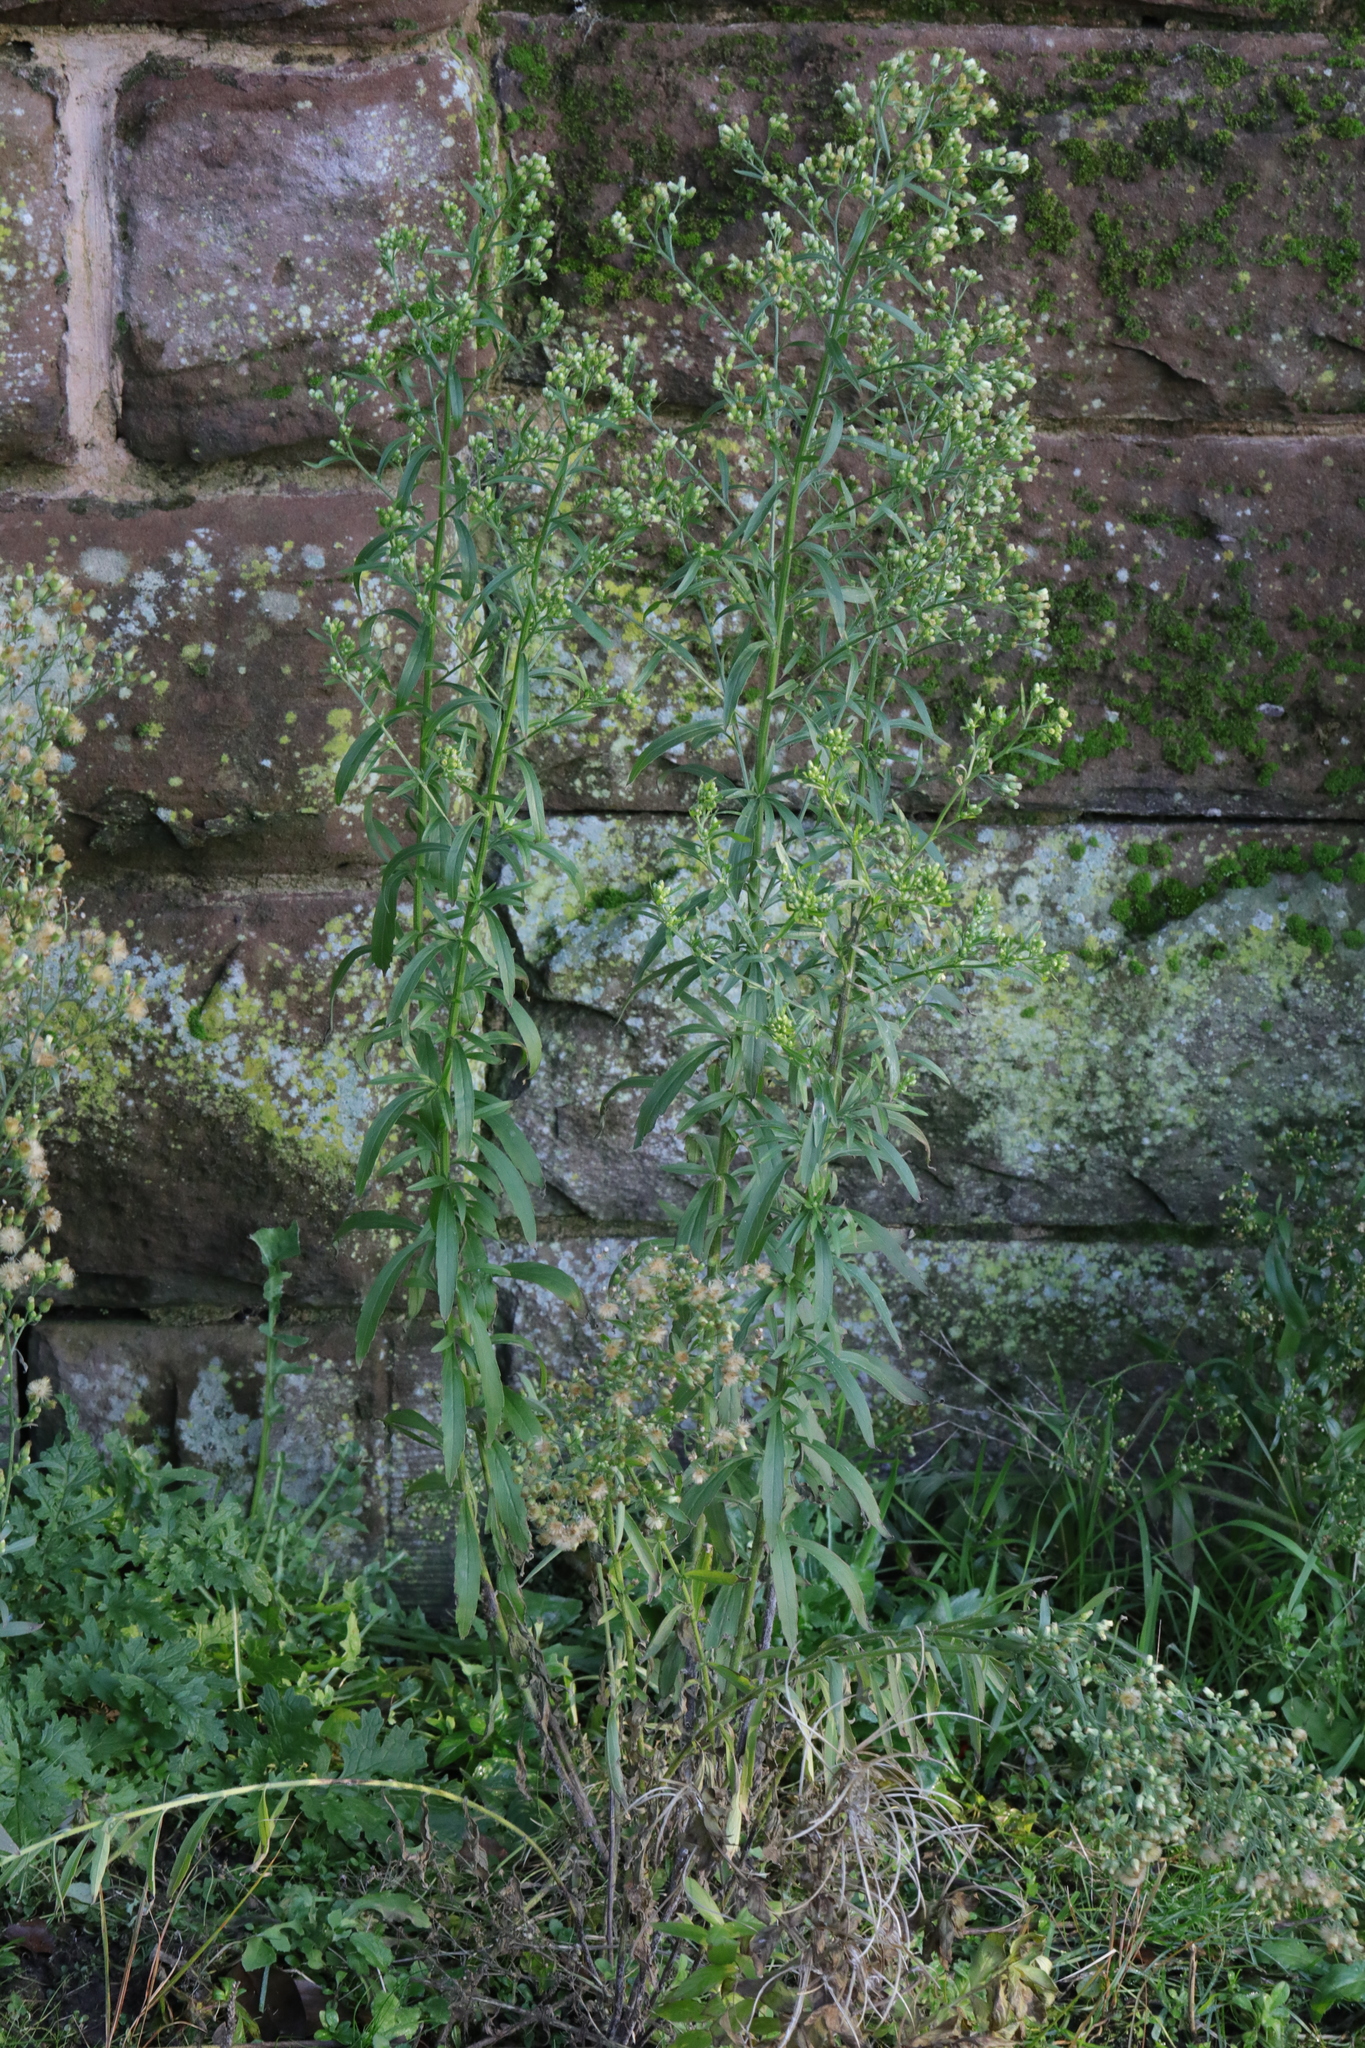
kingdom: Plantae
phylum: Tracheophyta
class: Magnoliopsida
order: Asterales
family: Asteraceae
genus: Erigeron
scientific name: Erigeron canadensis
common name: Canadian fleabane
